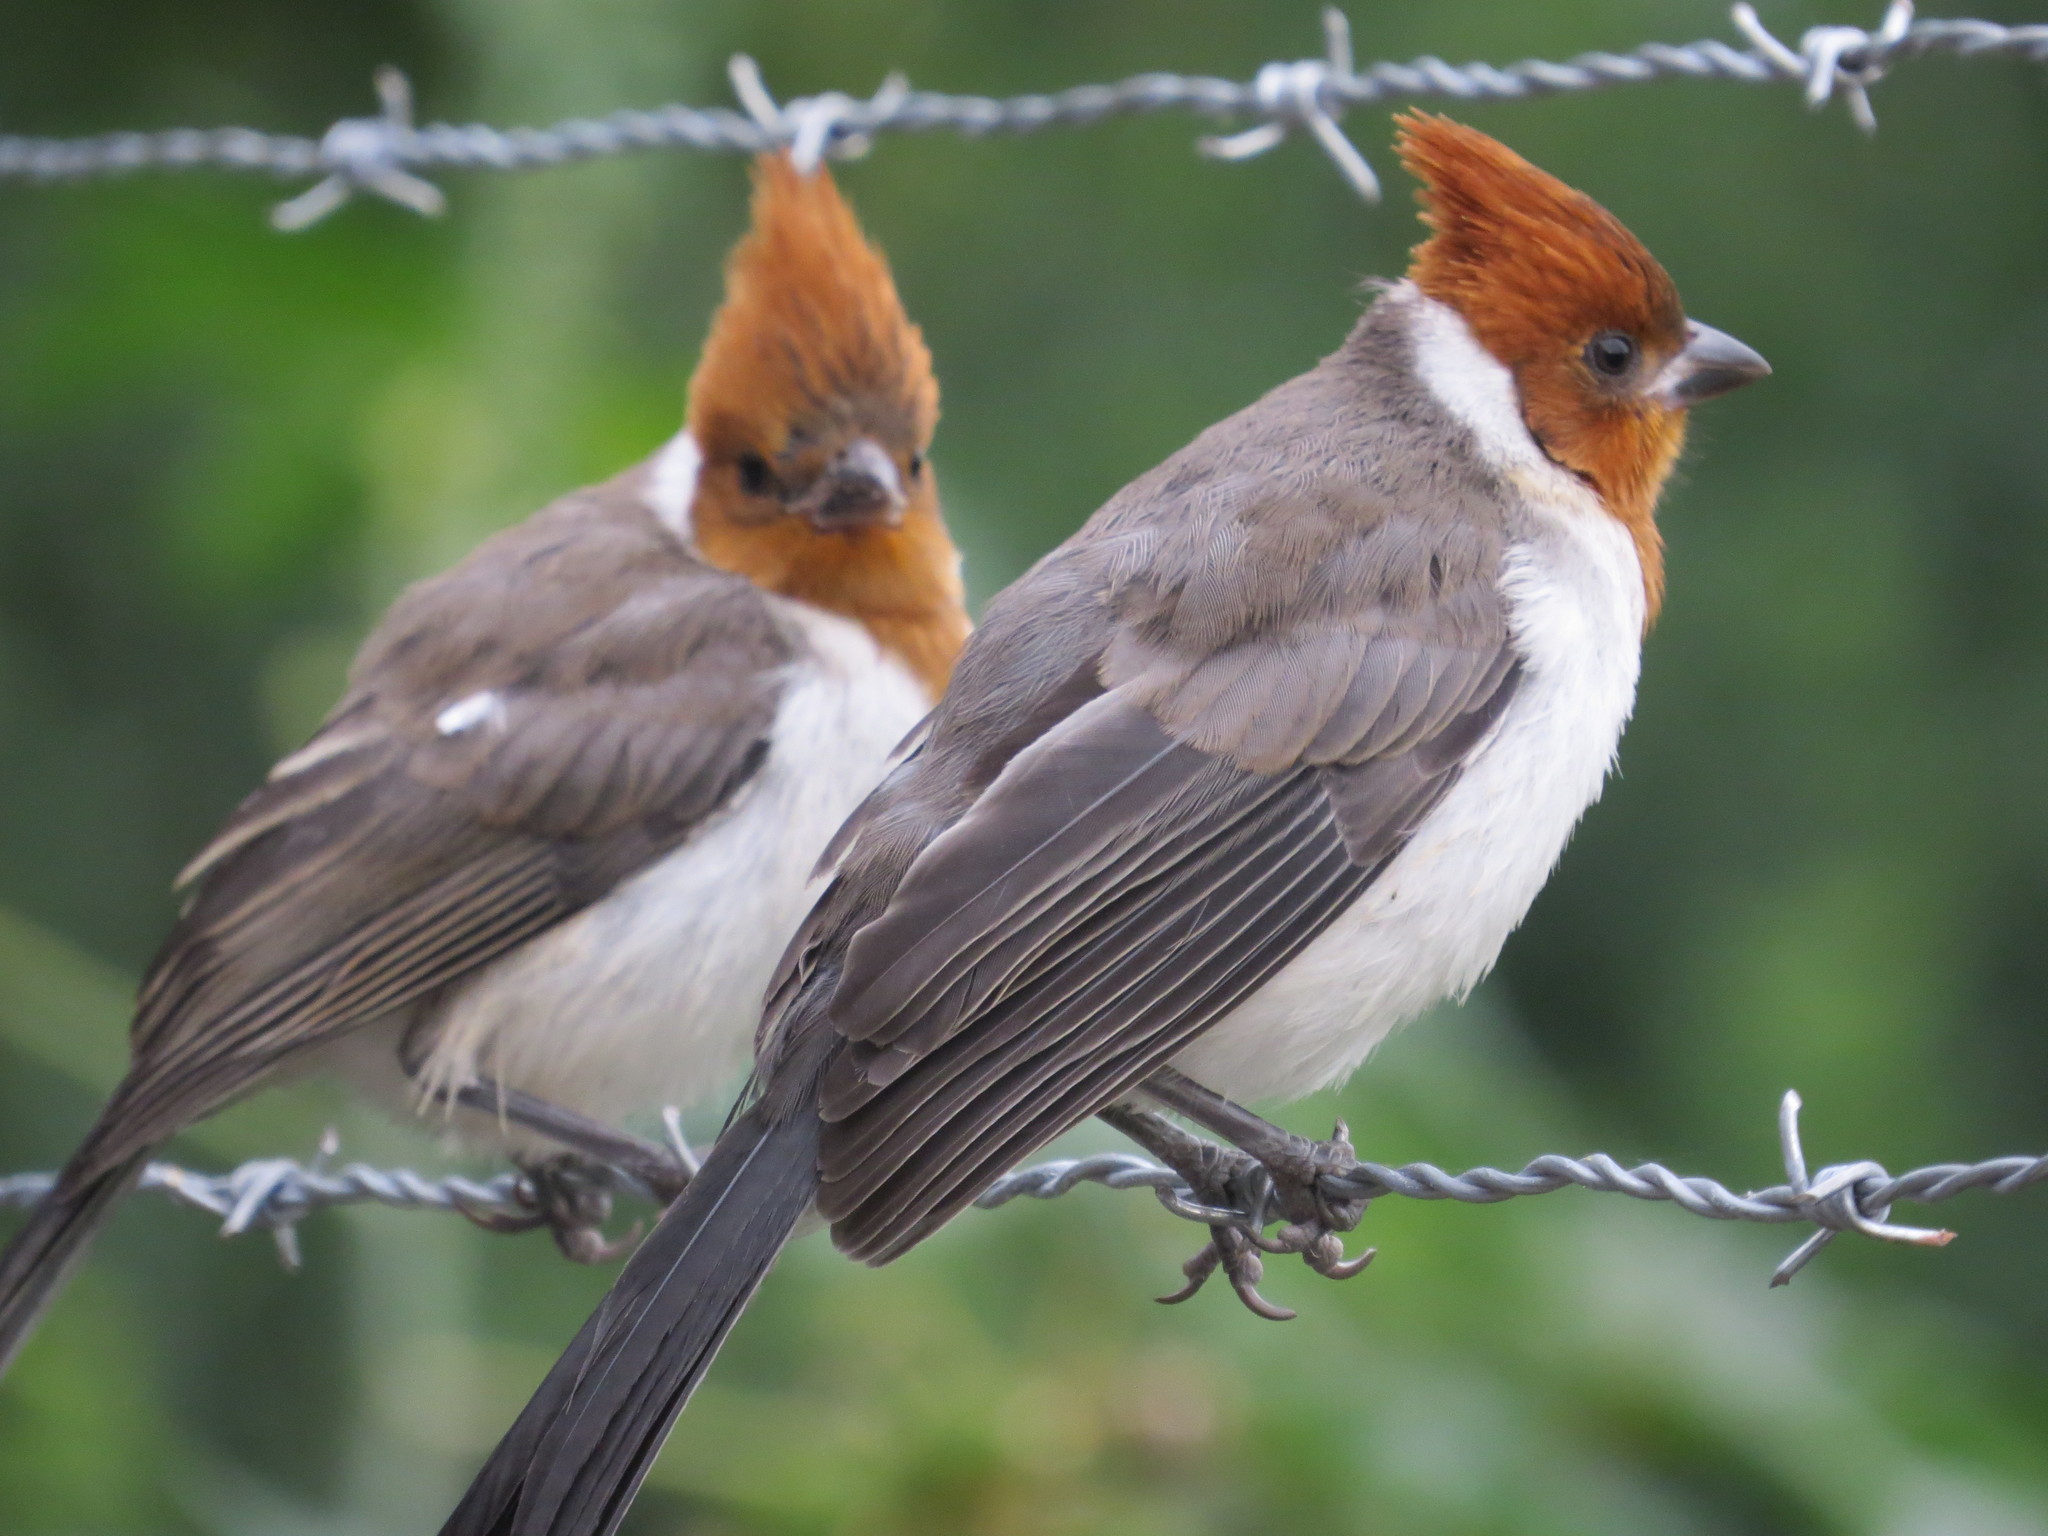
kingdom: Animalia
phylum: Chordata
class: Aves
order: Passeriformes
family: Thraupidae
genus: Paroaria
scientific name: Paroaria coronata
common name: Red-crested cardinal
